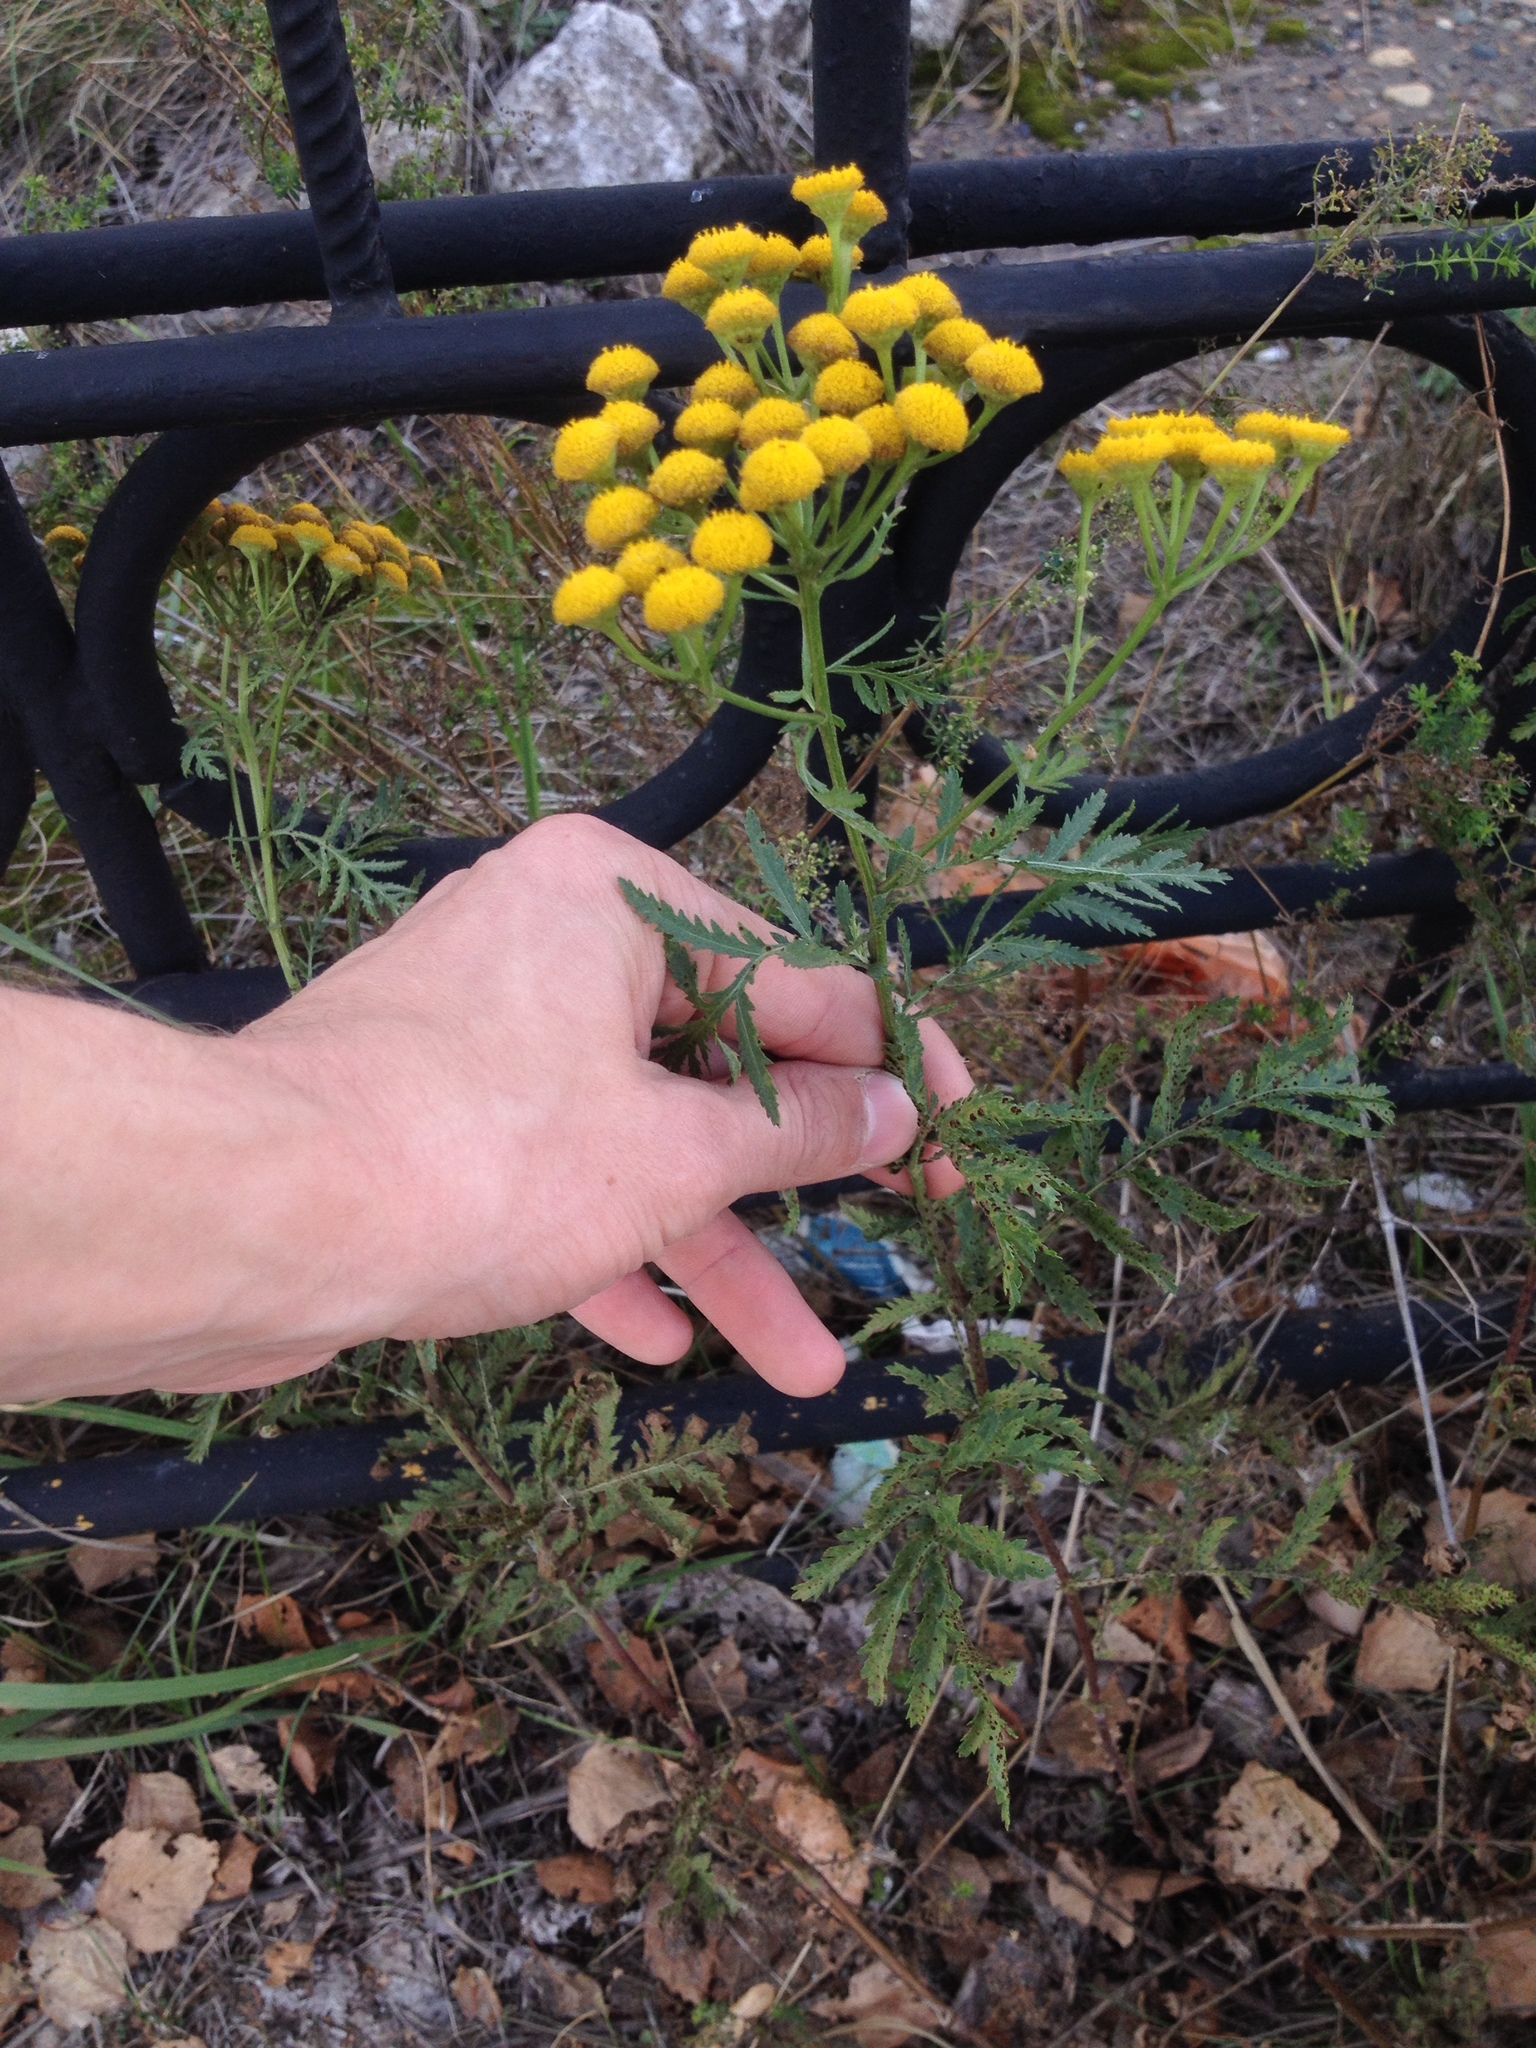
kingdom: Plantae
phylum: Tracheophyta
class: Magnoliopsida
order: Asterales
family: Asteraceae
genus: Tanacetum
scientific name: Tanacetum vulgare
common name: Common tansy
